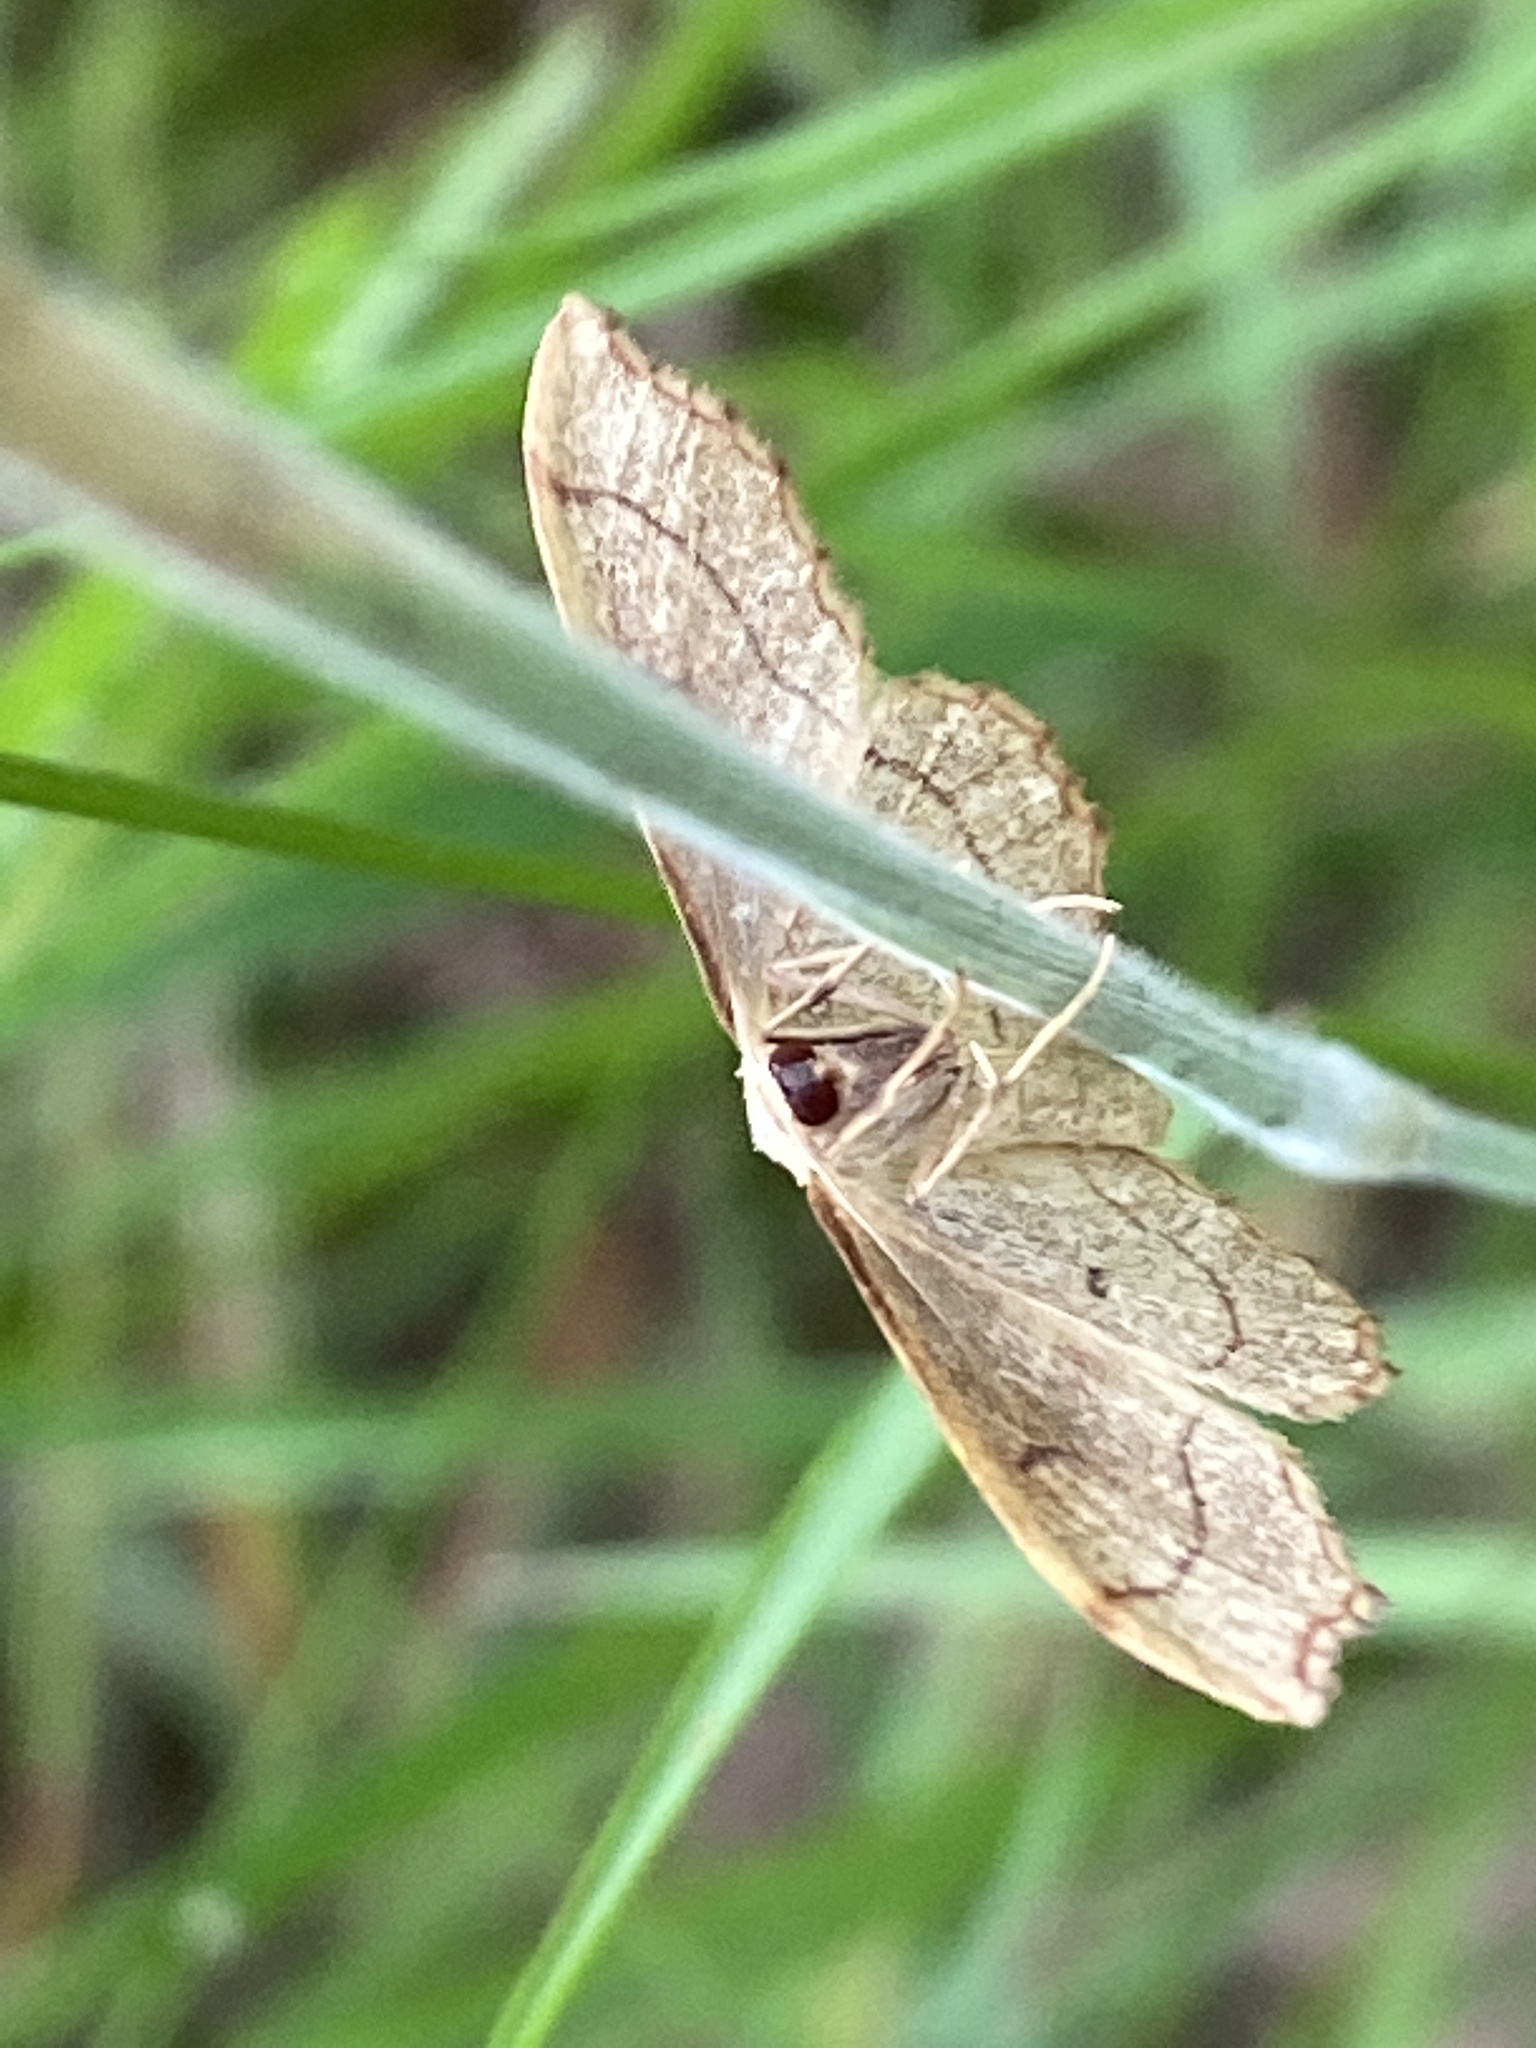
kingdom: Animalia
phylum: Arthropoda
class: Insecta
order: Lepidoptera
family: Geometridae
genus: Idaea
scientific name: Idaea emarginata
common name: Small scallop
